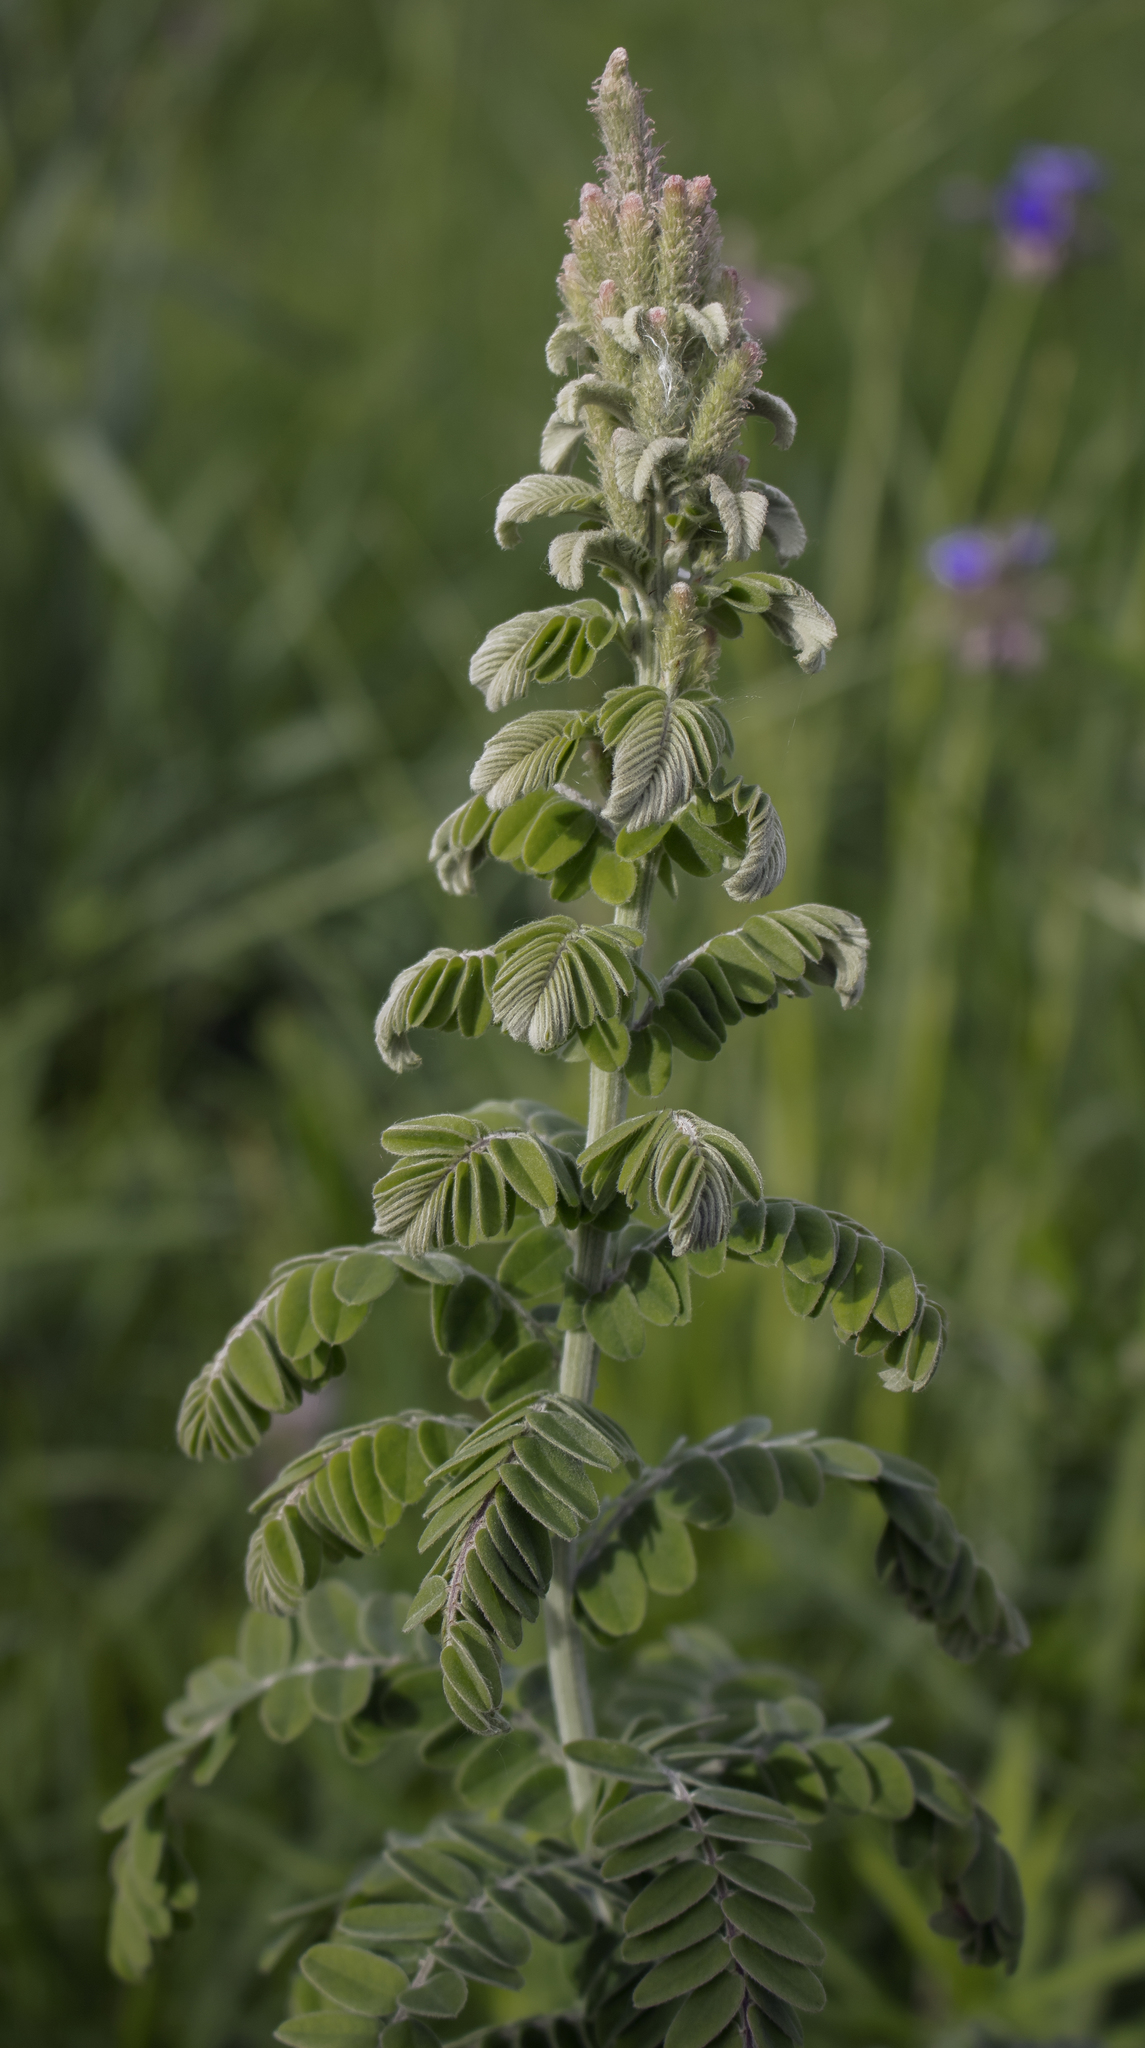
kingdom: Plantae
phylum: Tracheophyta
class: Magnoliopsida
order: Fabales
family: Fabaceae
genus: Amorpha
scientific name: Amorpha canescens
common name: Leadplant
